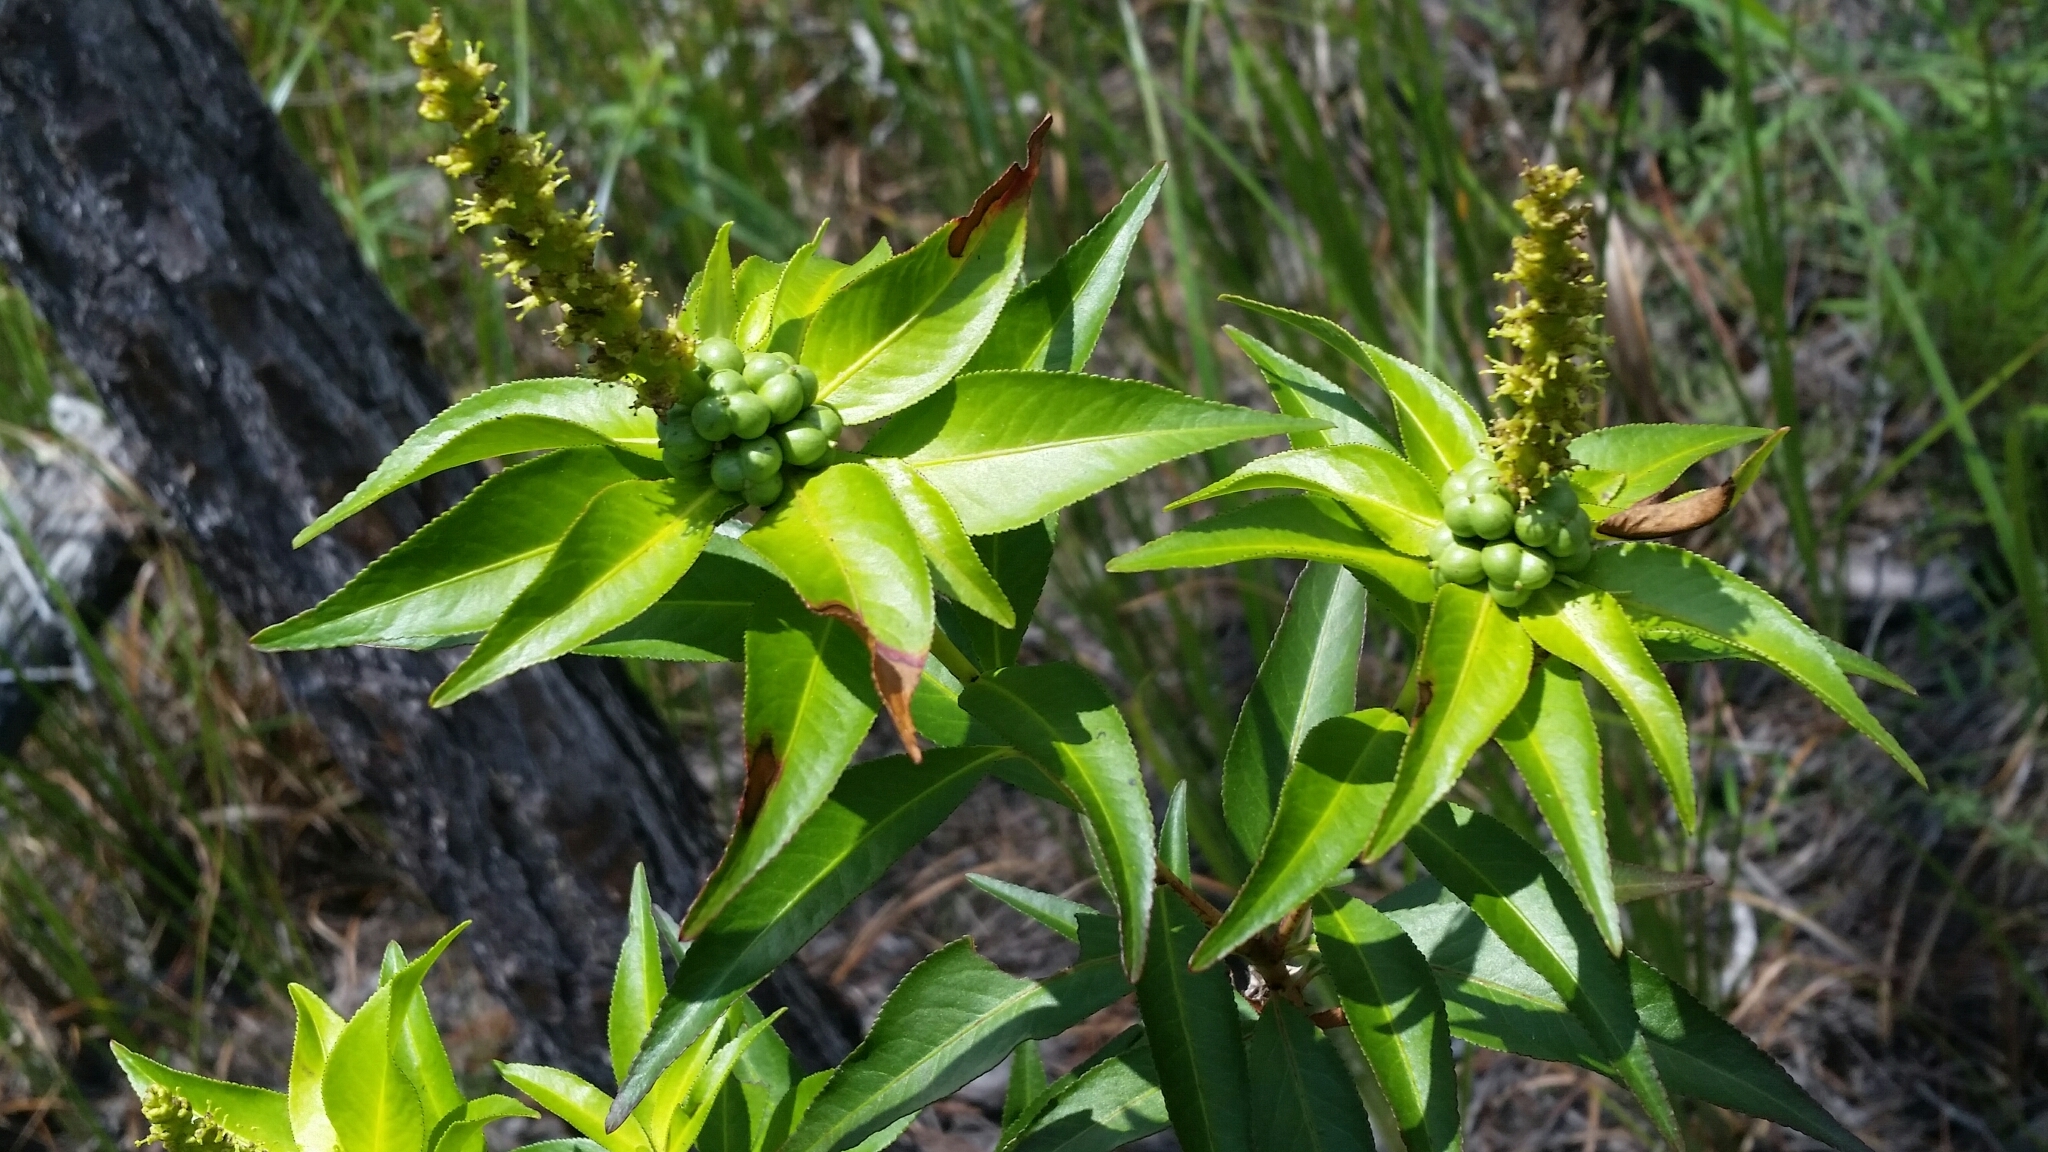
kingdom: Plantae
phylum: Tracheophyta
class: Magnoliopsida
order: Malpighiales
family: Euphorbiaceae
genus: Stillingia
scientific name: Stillingia aquatica
